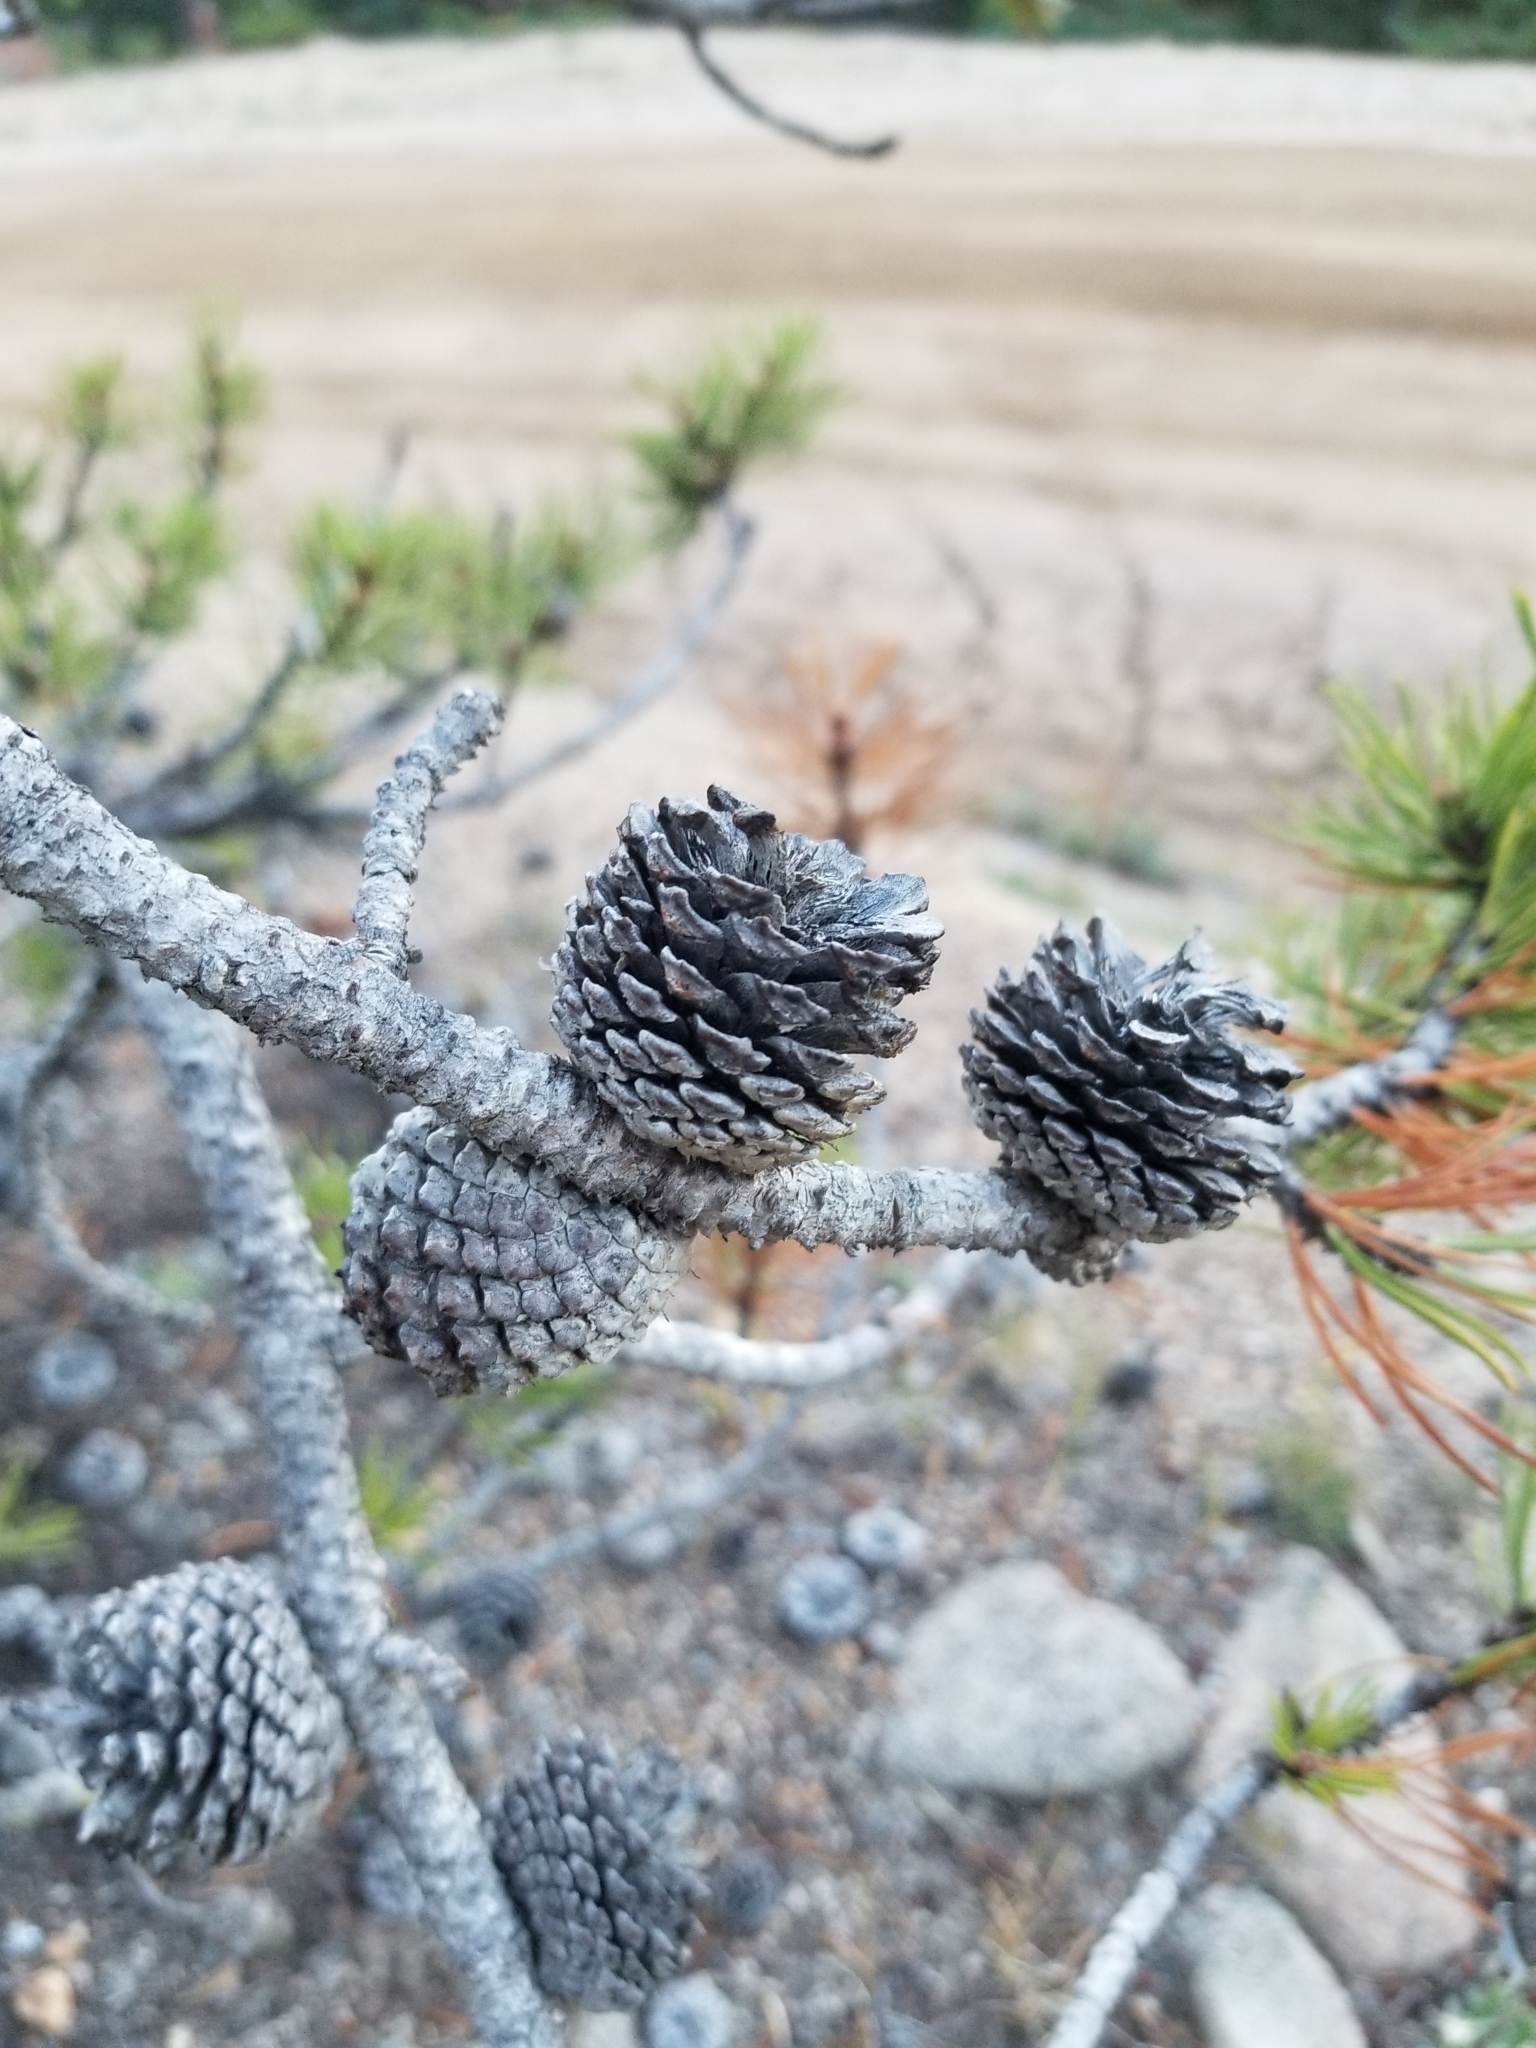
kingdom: Plantae
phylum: Tracheophyta
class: Pinopsida
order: Pinales
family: Pinaceae
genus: Pinus
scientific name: Pinus contorta
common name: Lodgepole pine
